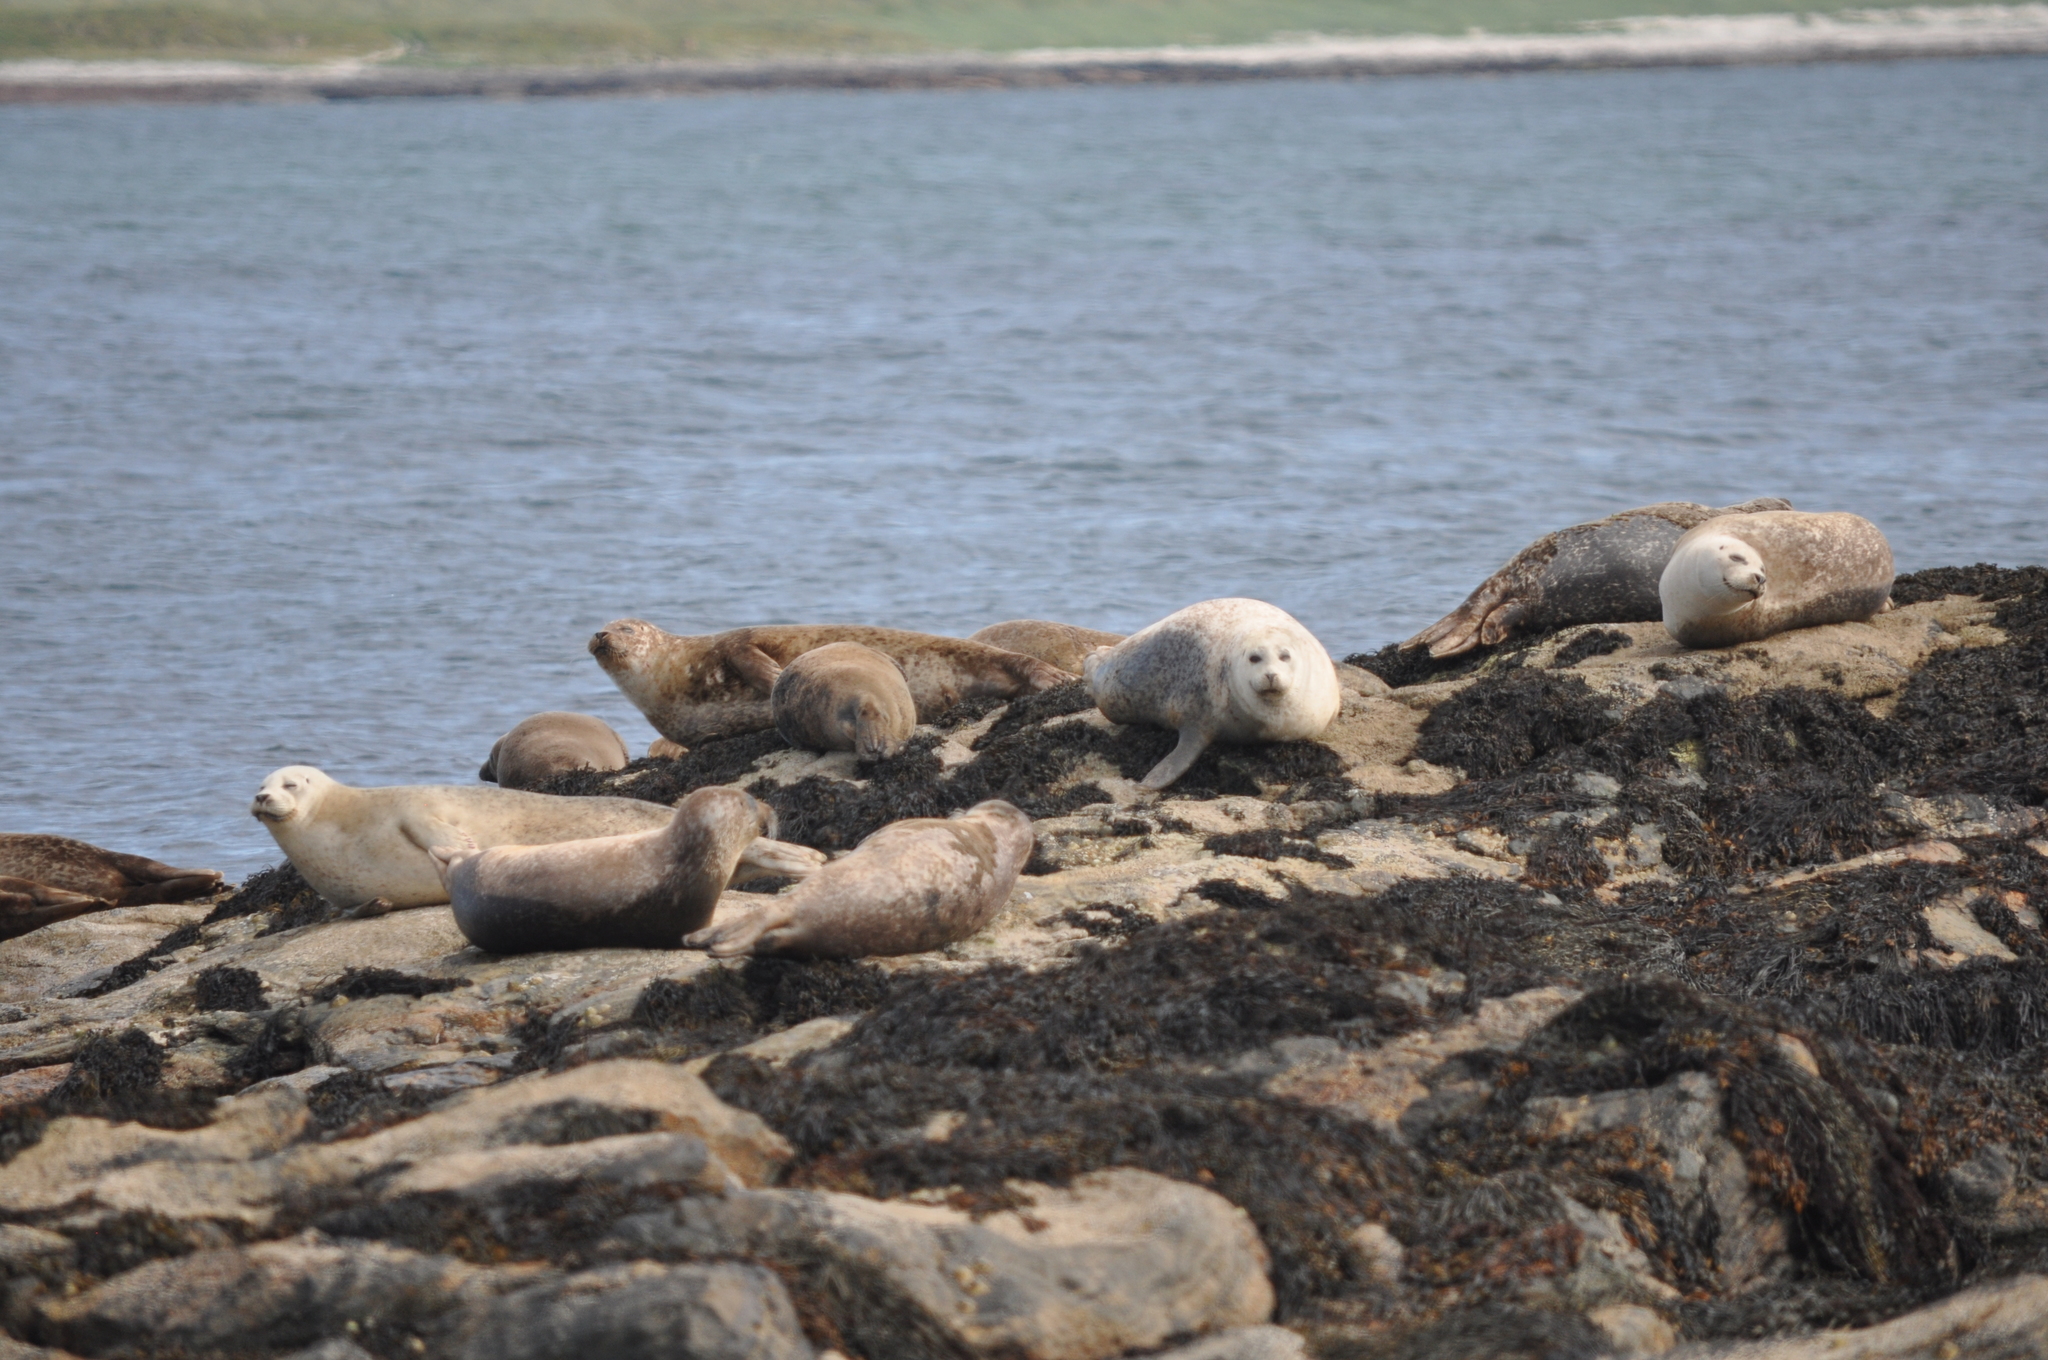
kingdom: Animalia
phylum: Chordata
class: Mammalia
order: Carnivora
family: Phocidae
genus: Phoca
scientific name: Phoca vitulina
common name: Harbor seal
